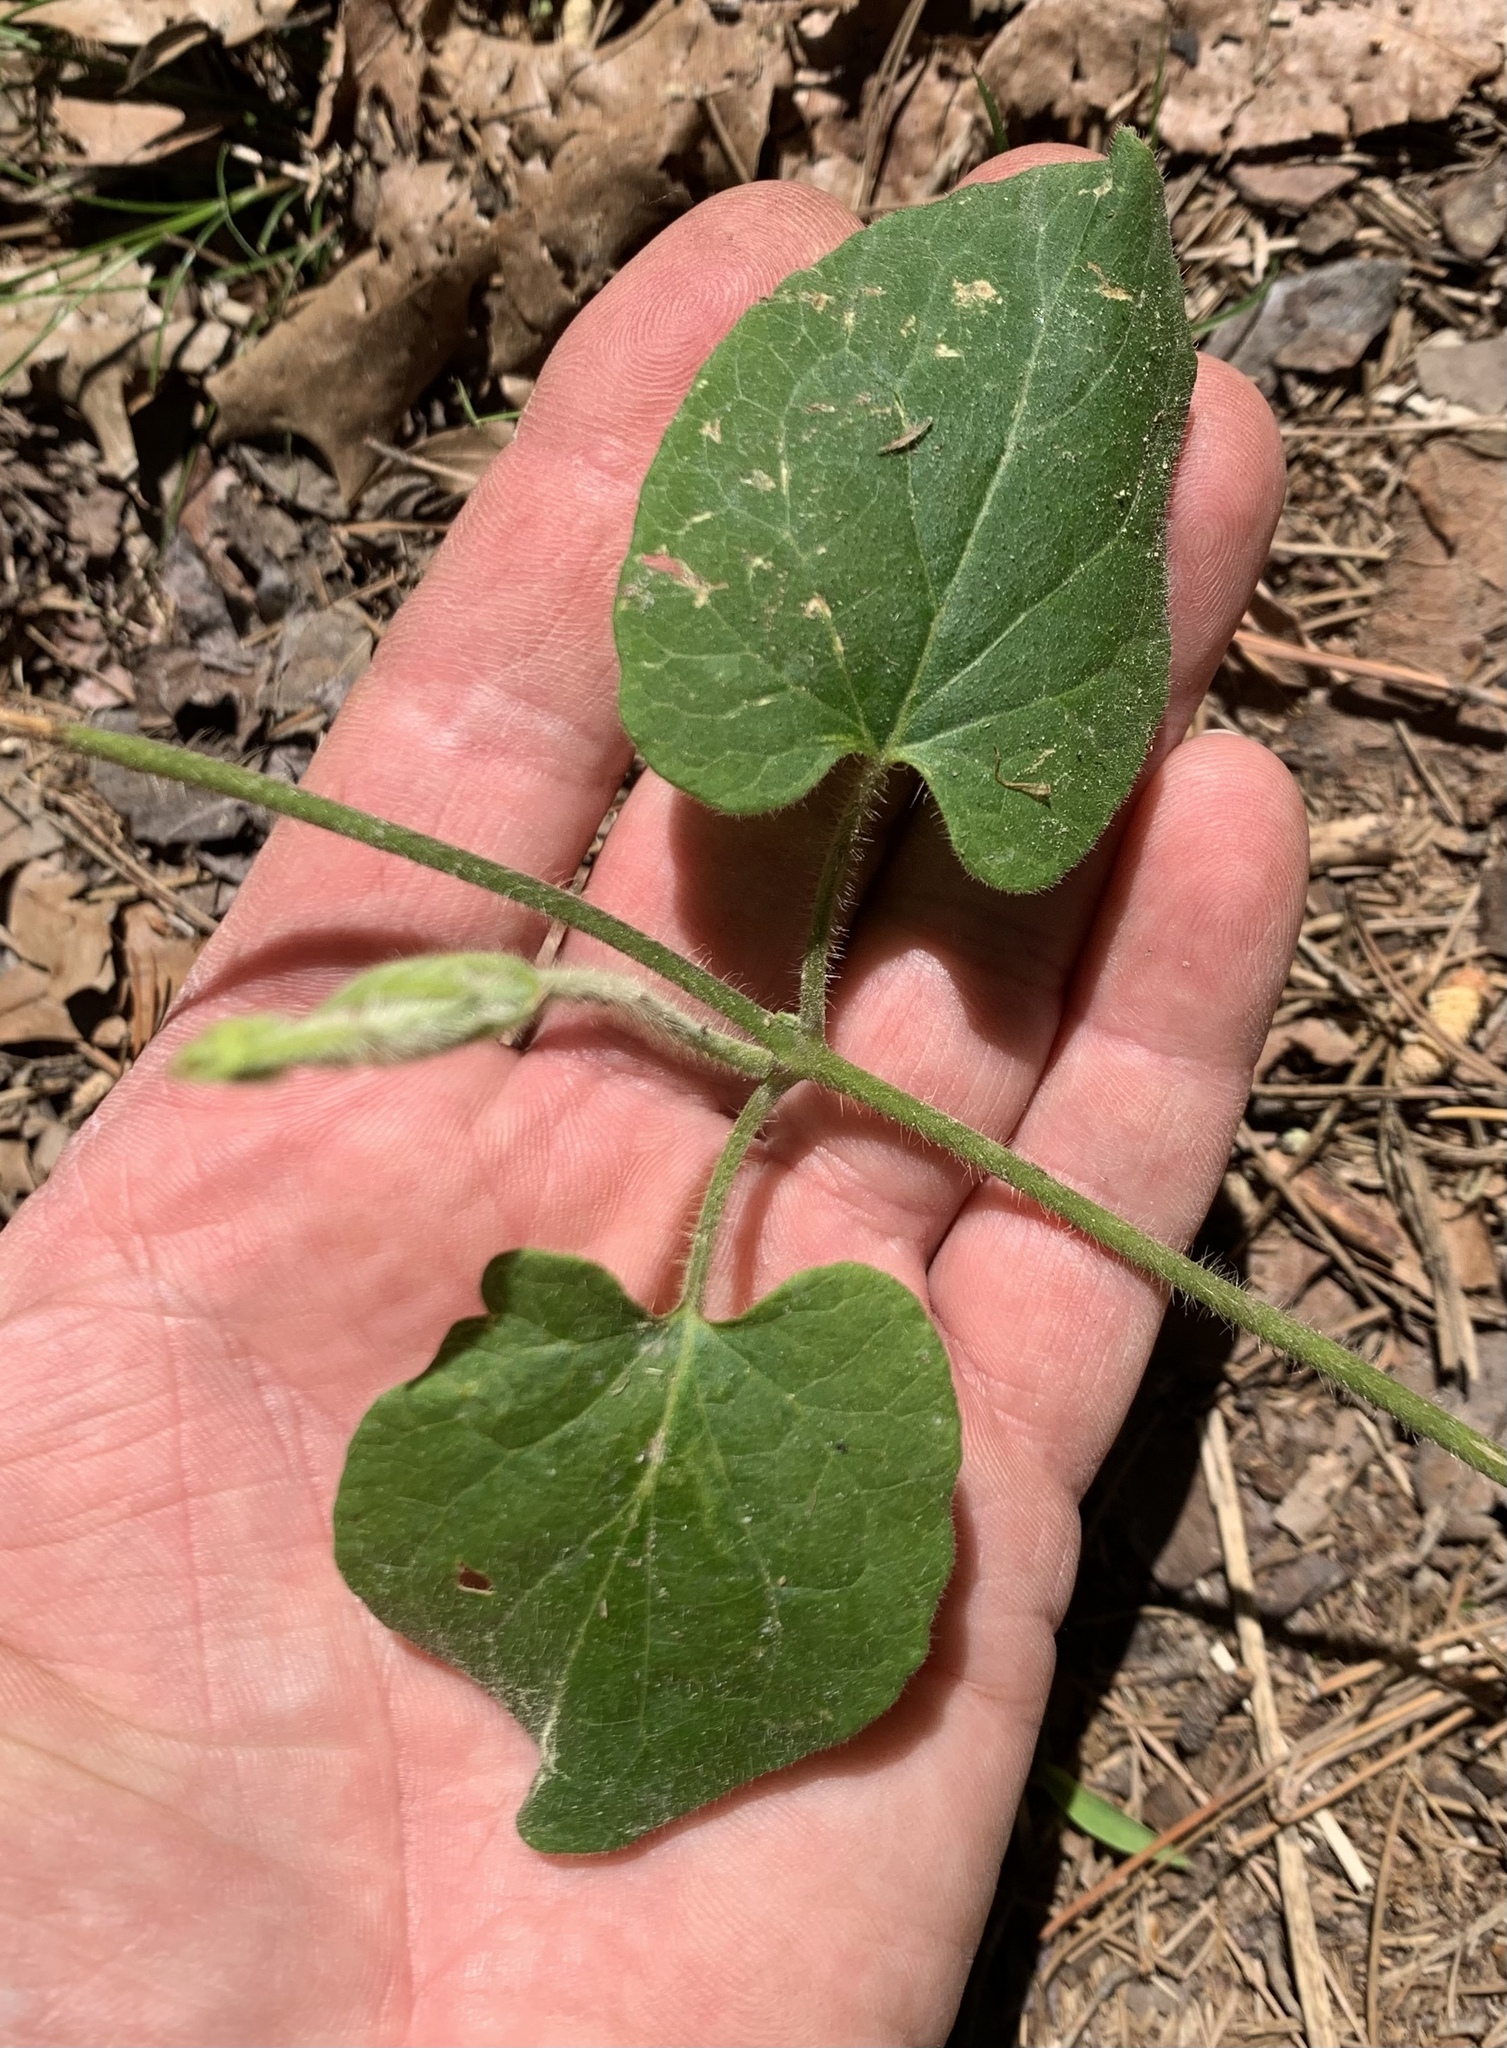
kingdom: Plantae
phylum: Tracheophyta
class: Magnoliopsida
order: Gentianales
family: Apocynaceae
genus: Dictyanthus
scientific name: Dictyanthus reticulatus
